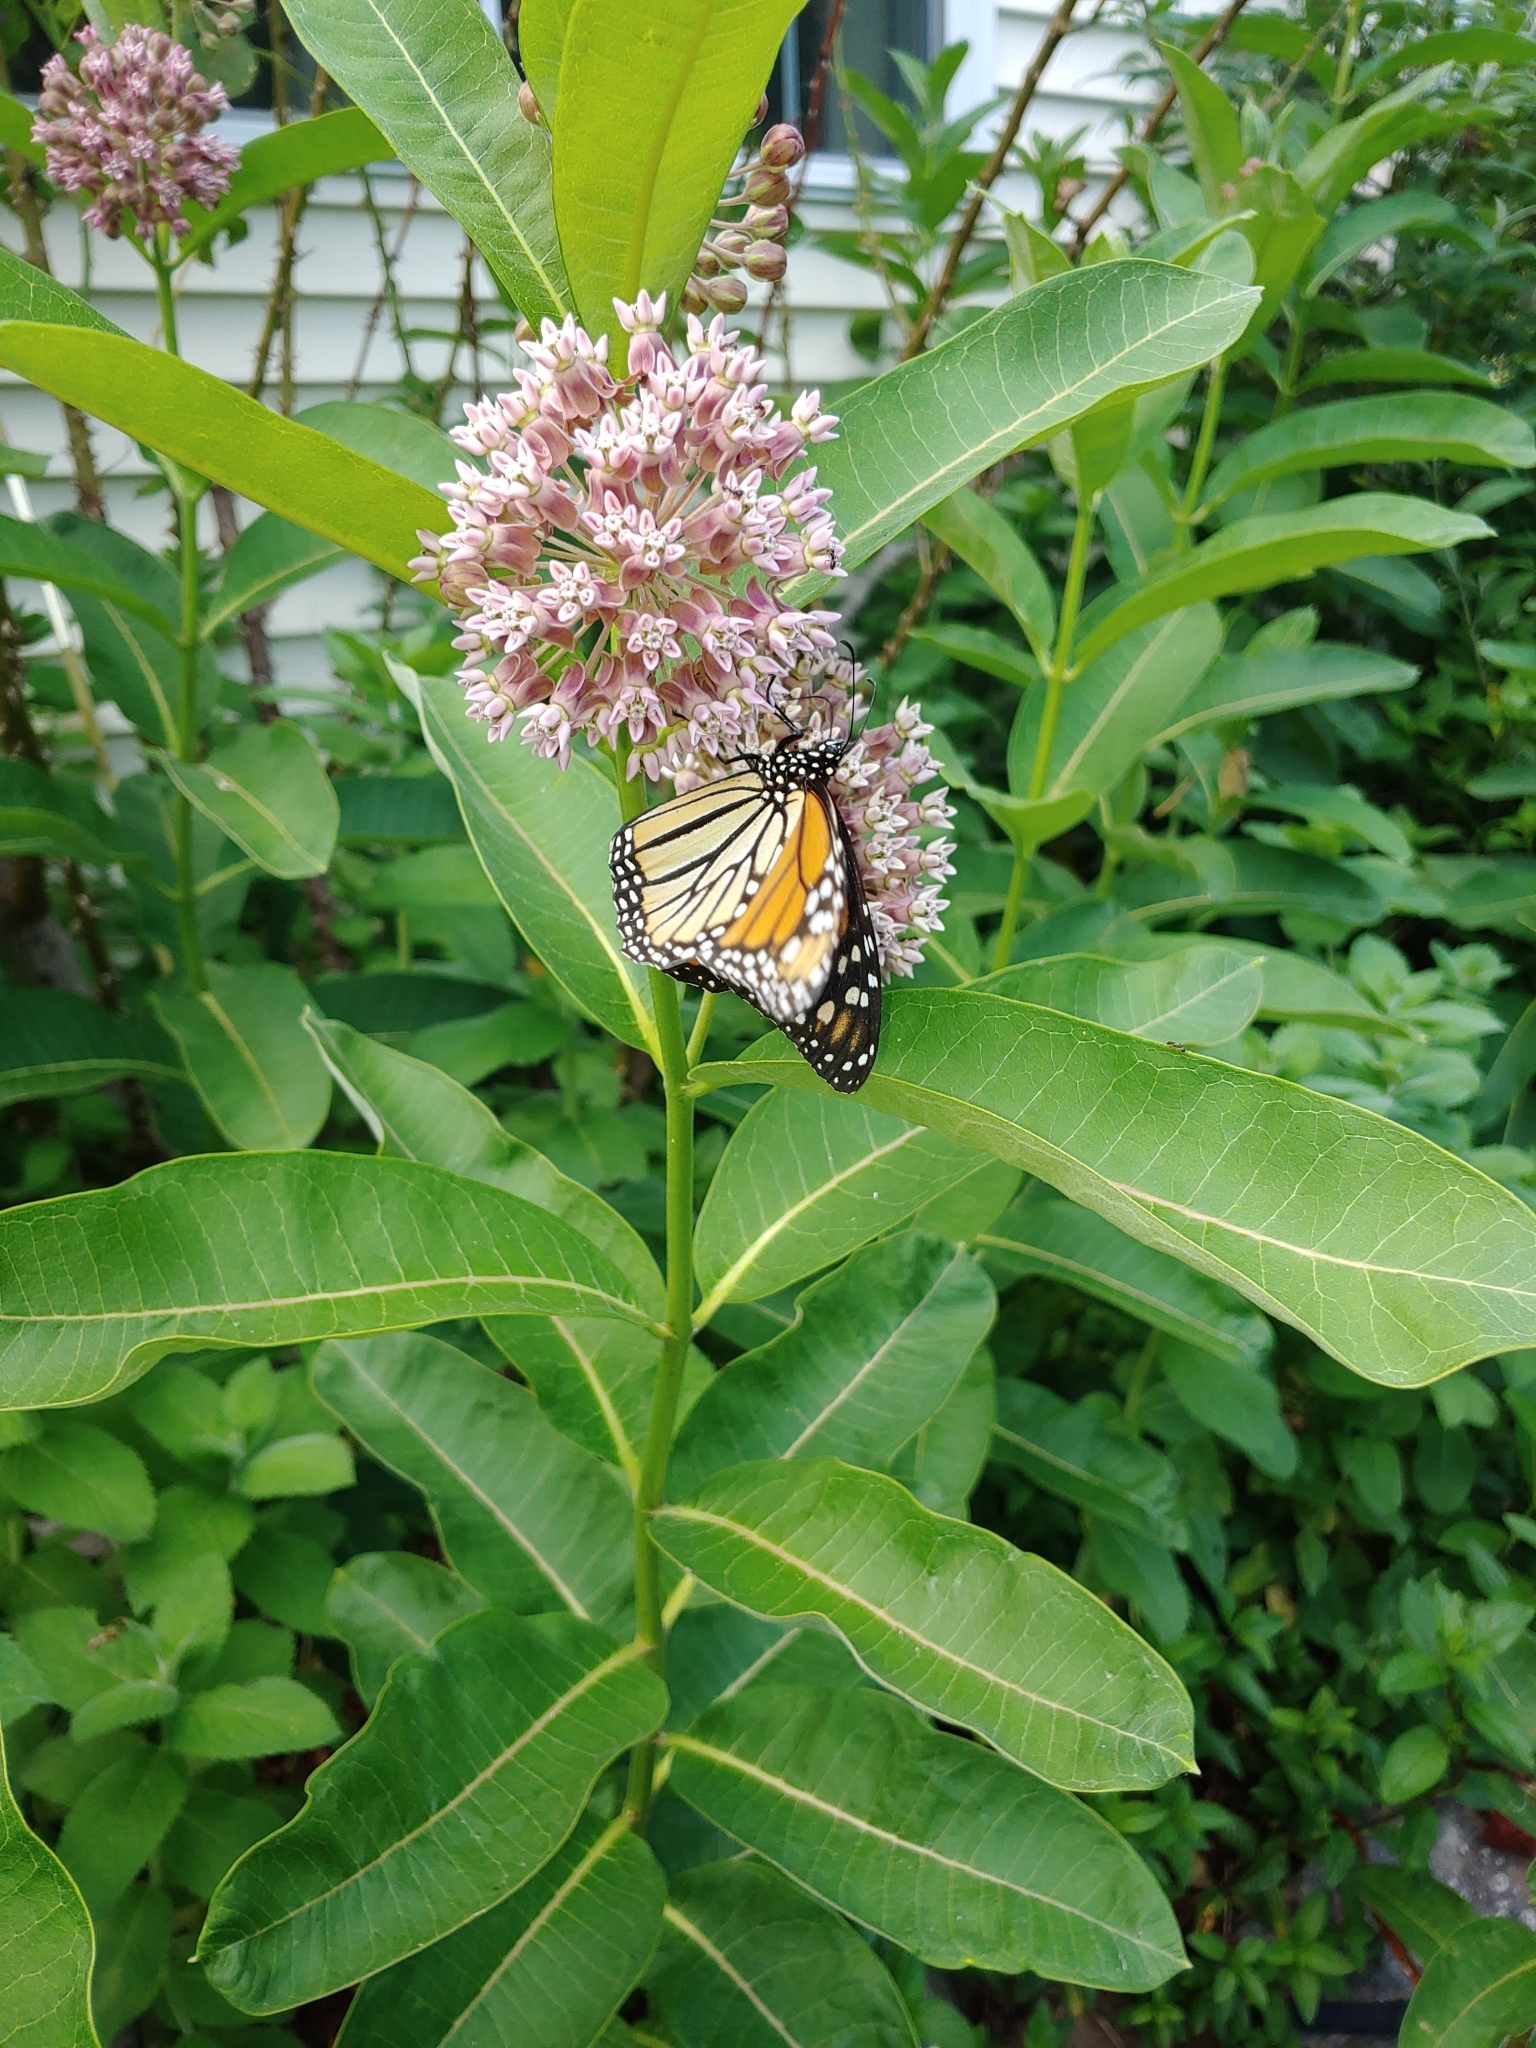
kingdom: Animalia
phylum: Arthropoda
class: Insecta
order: Lepidoptera
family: Nymphalidae
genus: Danaus
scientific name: Danaus plexippus
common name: Monarch
